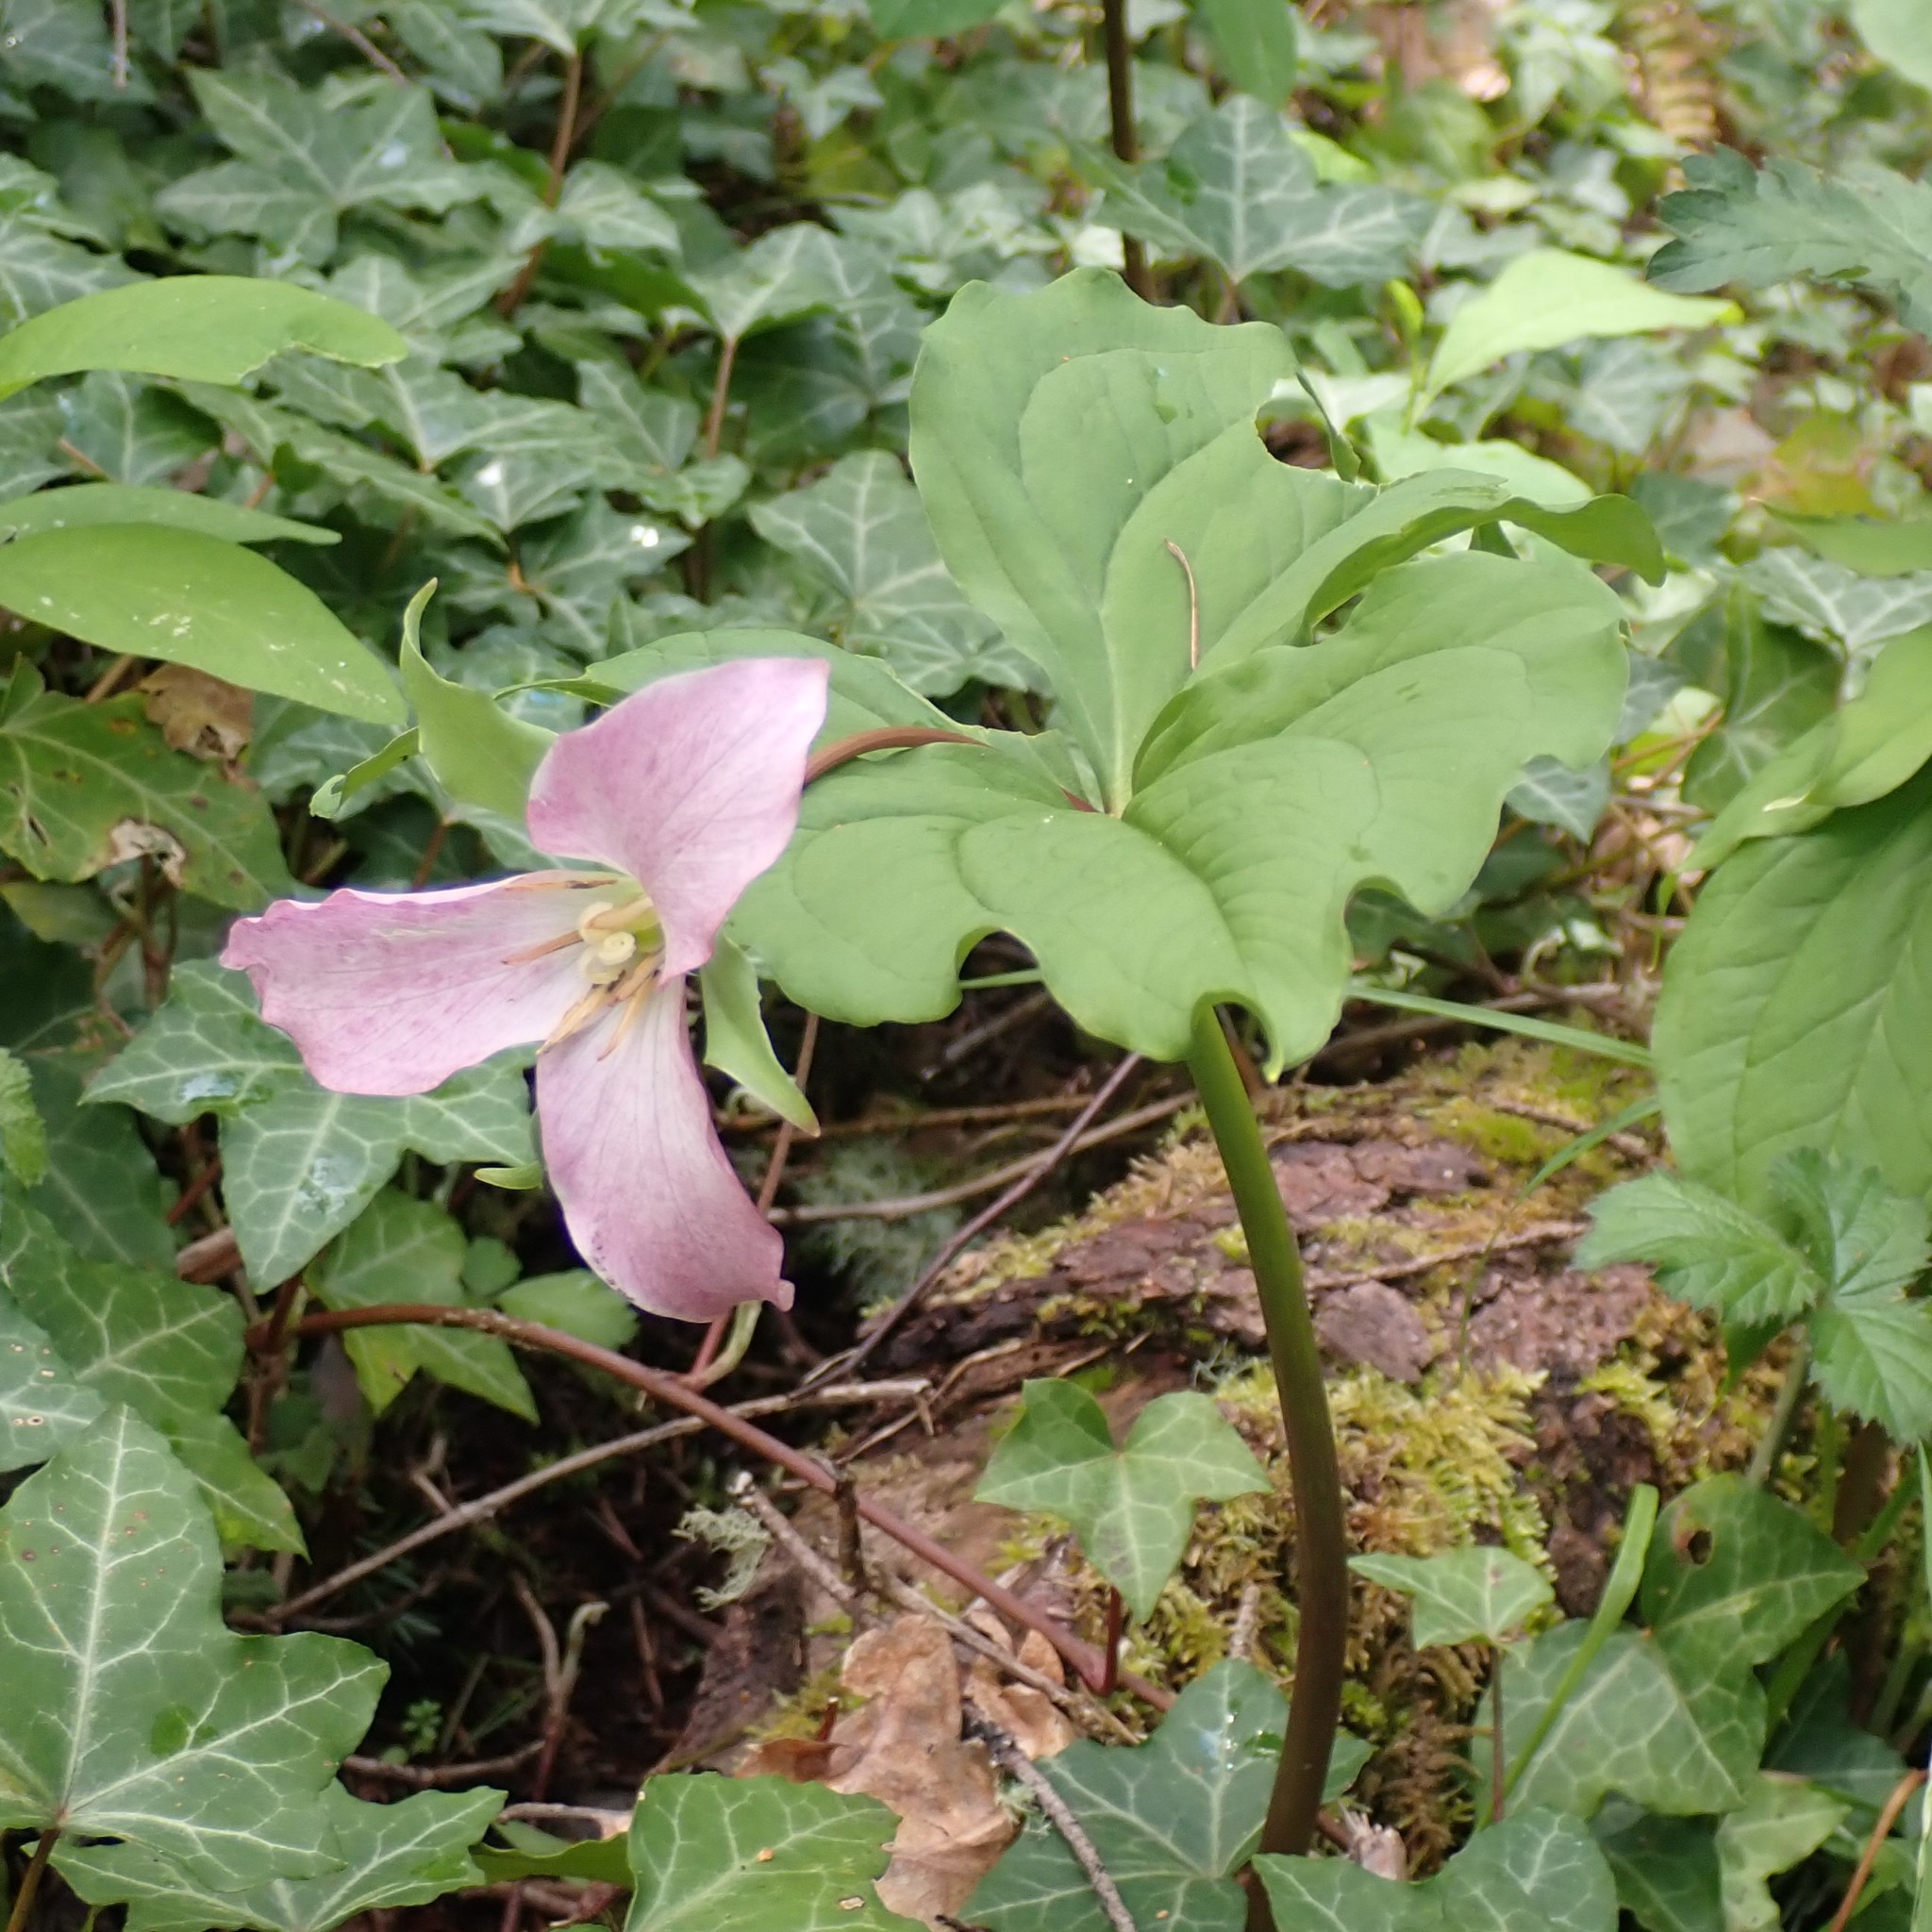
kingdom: Plantae
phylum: Tracheophyta
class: Liliopsida
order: Liliales
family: Melanthiaceae
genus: Trillium
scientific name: Trillium ovatum
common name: Pacific trillium
